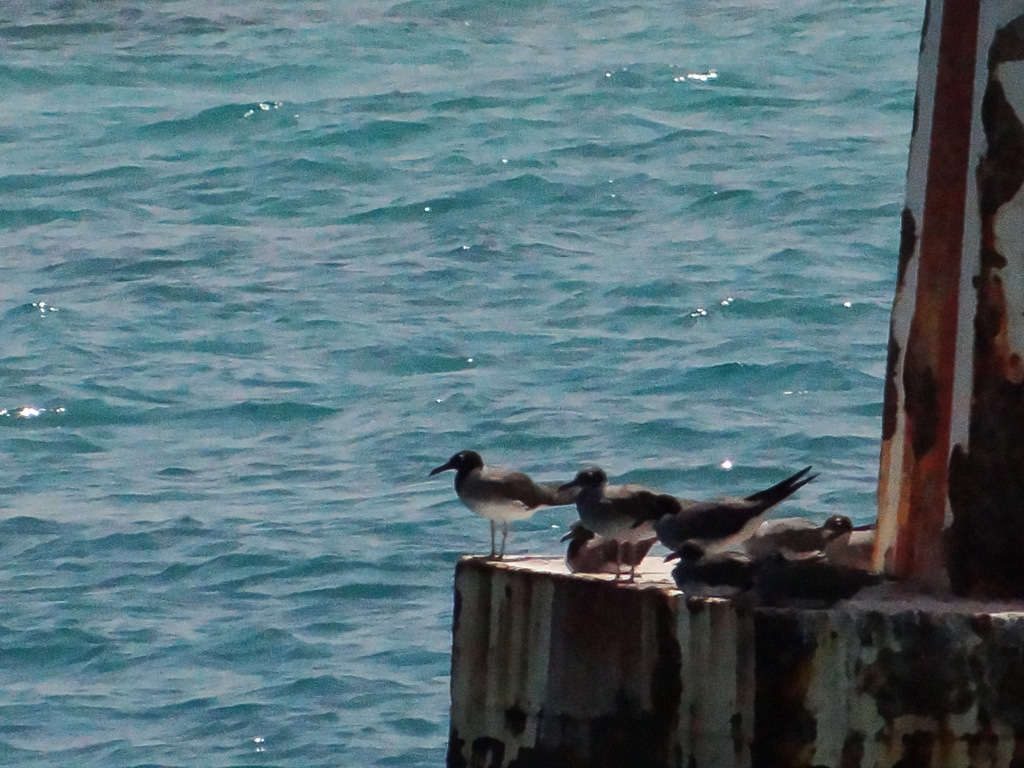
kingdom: Animalia
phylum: Chordata
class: Aves
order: Charadriiformes
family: Laridae
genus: Ichthyaetus
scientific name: Ichthyaetus leucophthalmus
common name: White-eyed gull
